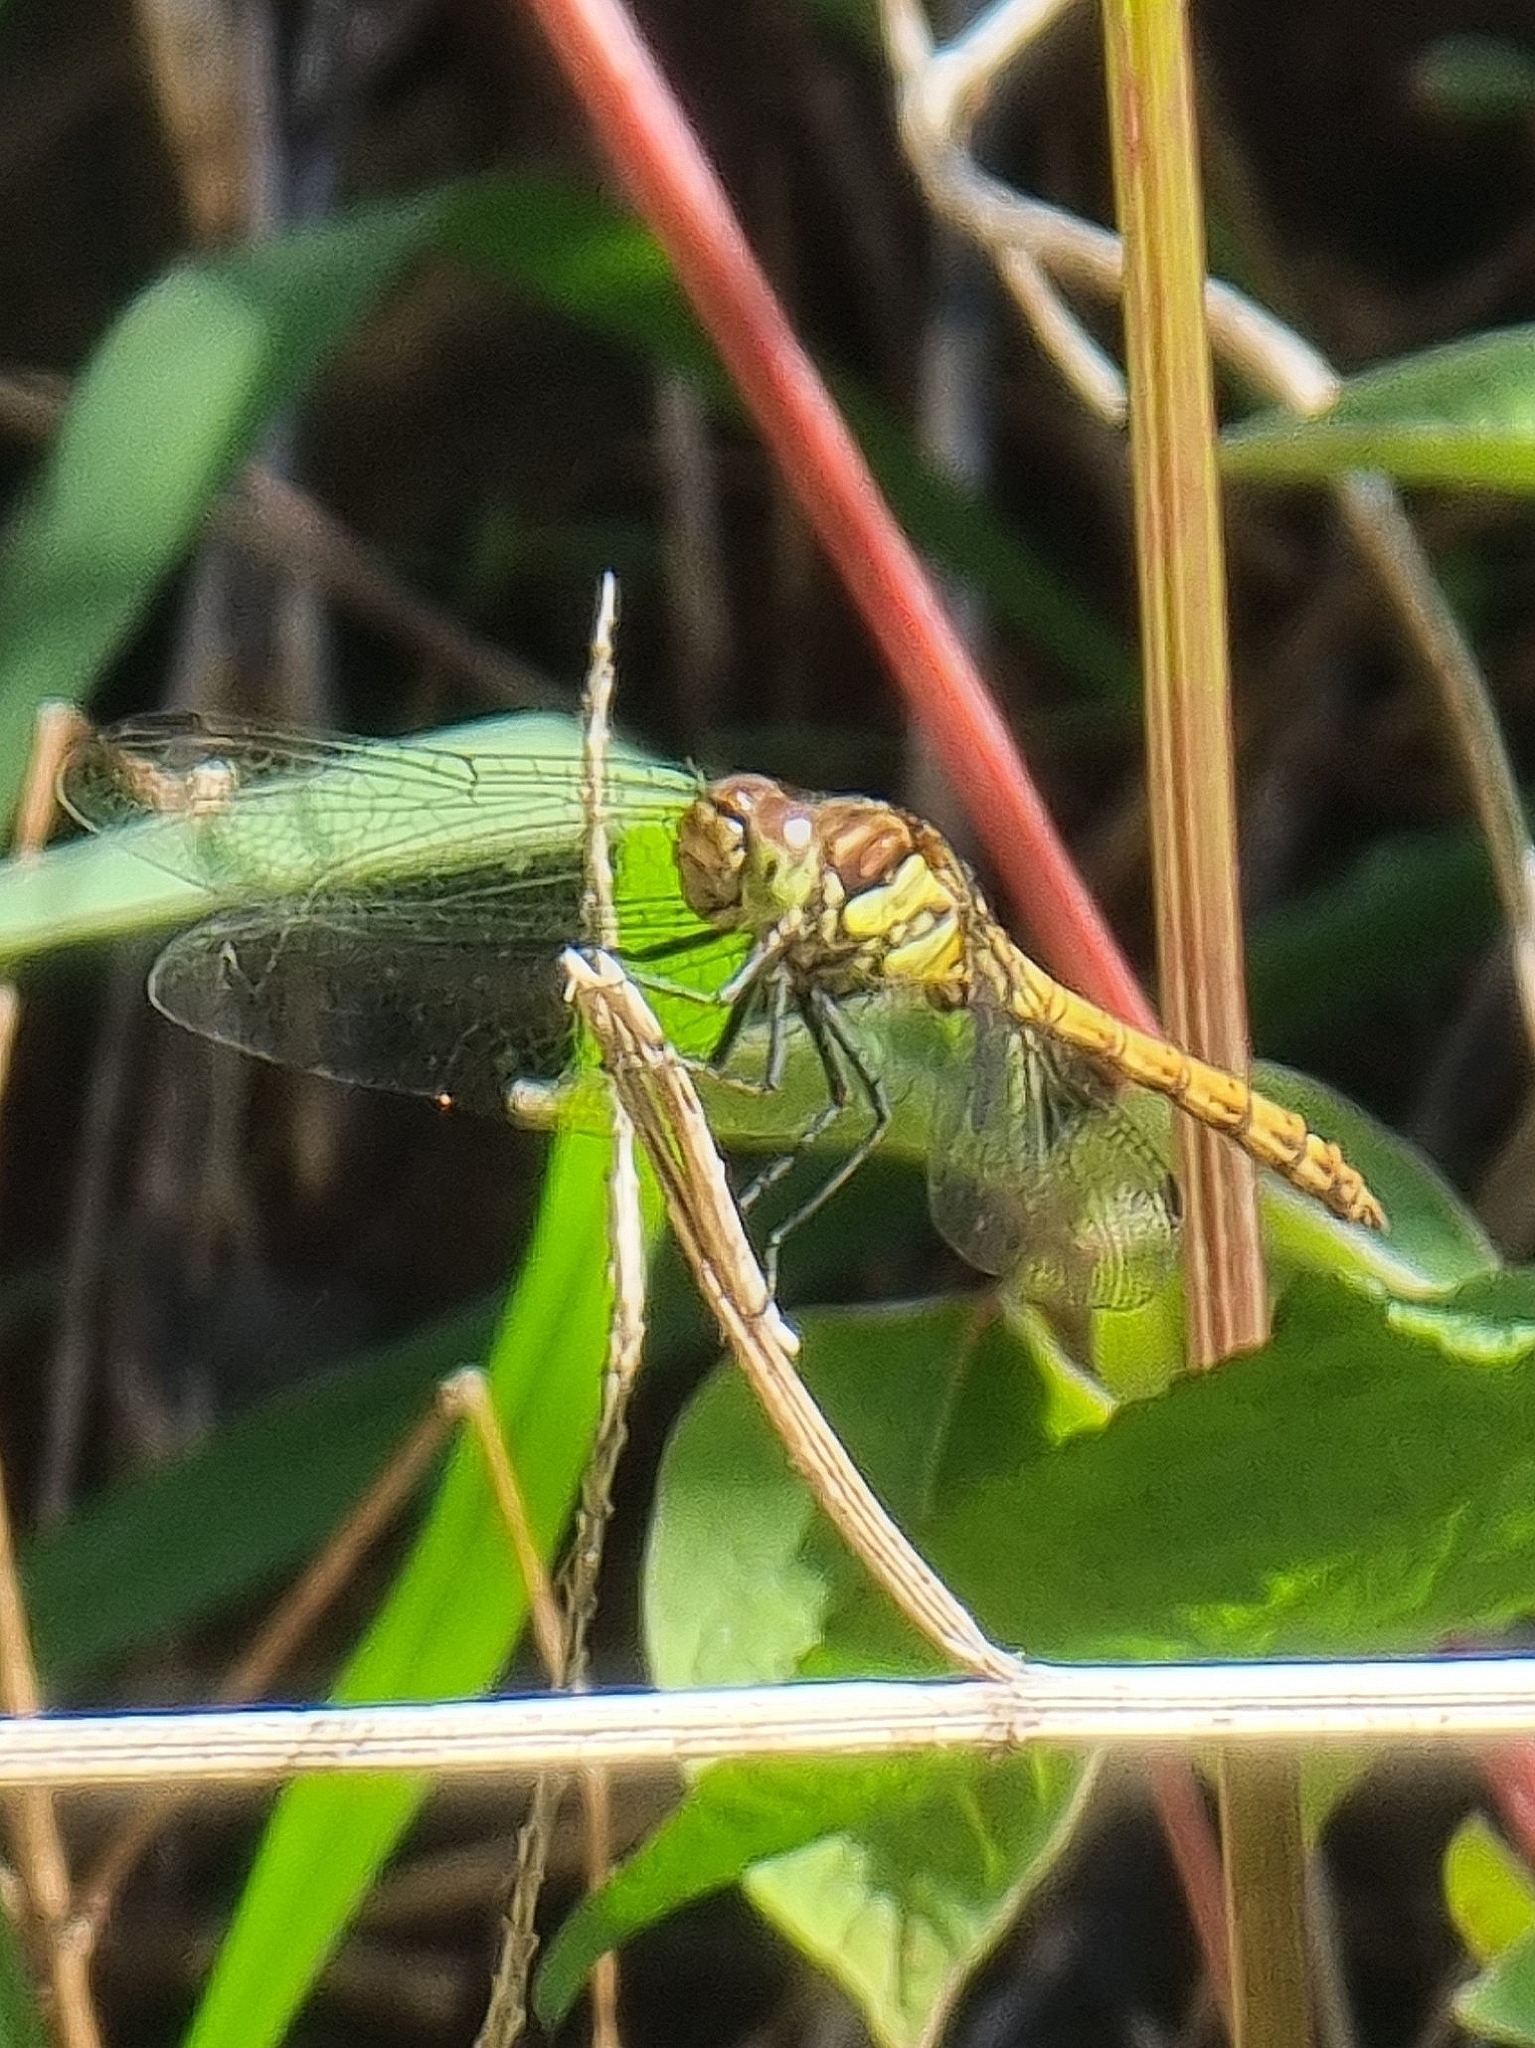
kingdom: Animalia
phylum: Arthropoda
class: Insecta
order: Odonata
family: Libellulidae
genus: Sympetrum
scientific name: Sympetrum nigrifemur
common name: Island darter
